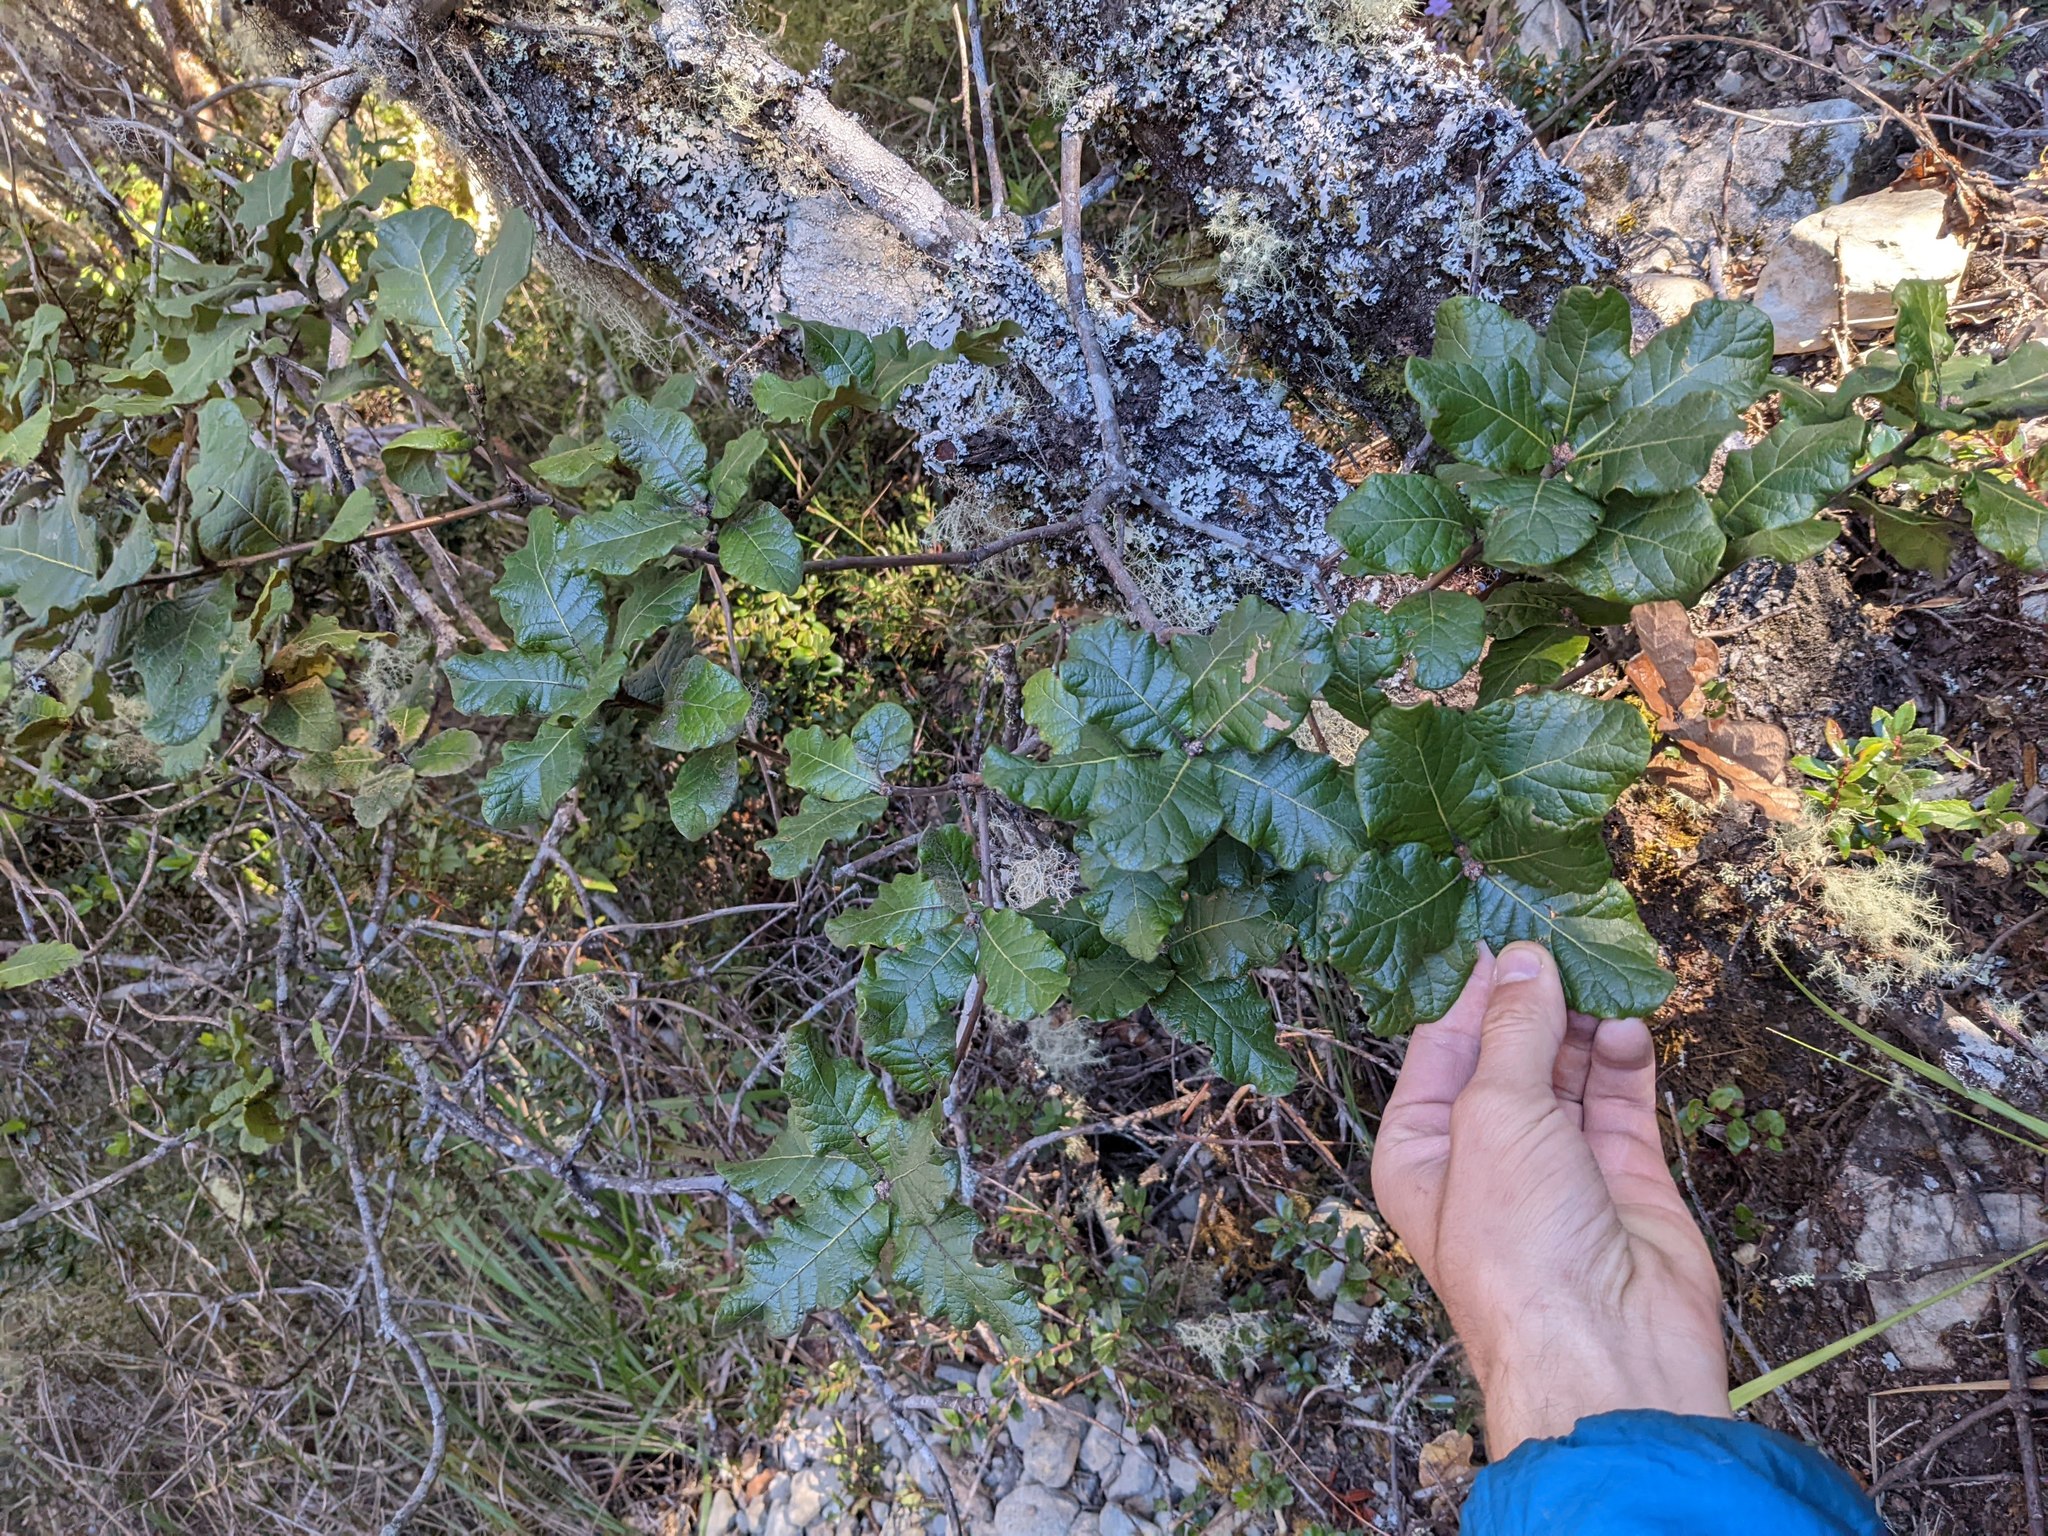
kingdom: Plantae
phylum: Tracheophyta
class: Magnoliopsida
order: Fagales
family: Fagaceae
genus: Quercus
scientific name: Quercus costaricensis
